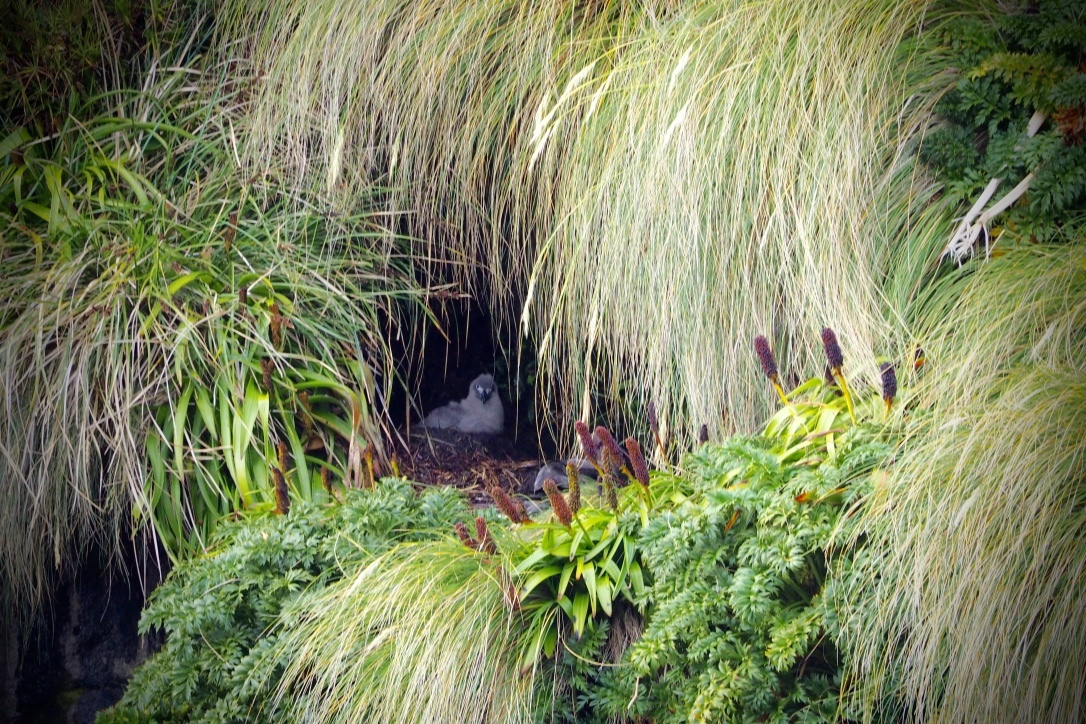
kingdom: Animalia
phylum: Chordata
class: Aves
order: Procellariiformes
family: Diomedeidae
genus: Phoebetria
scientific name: Phoebetria palpebrata
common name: Light-mantled albatross
